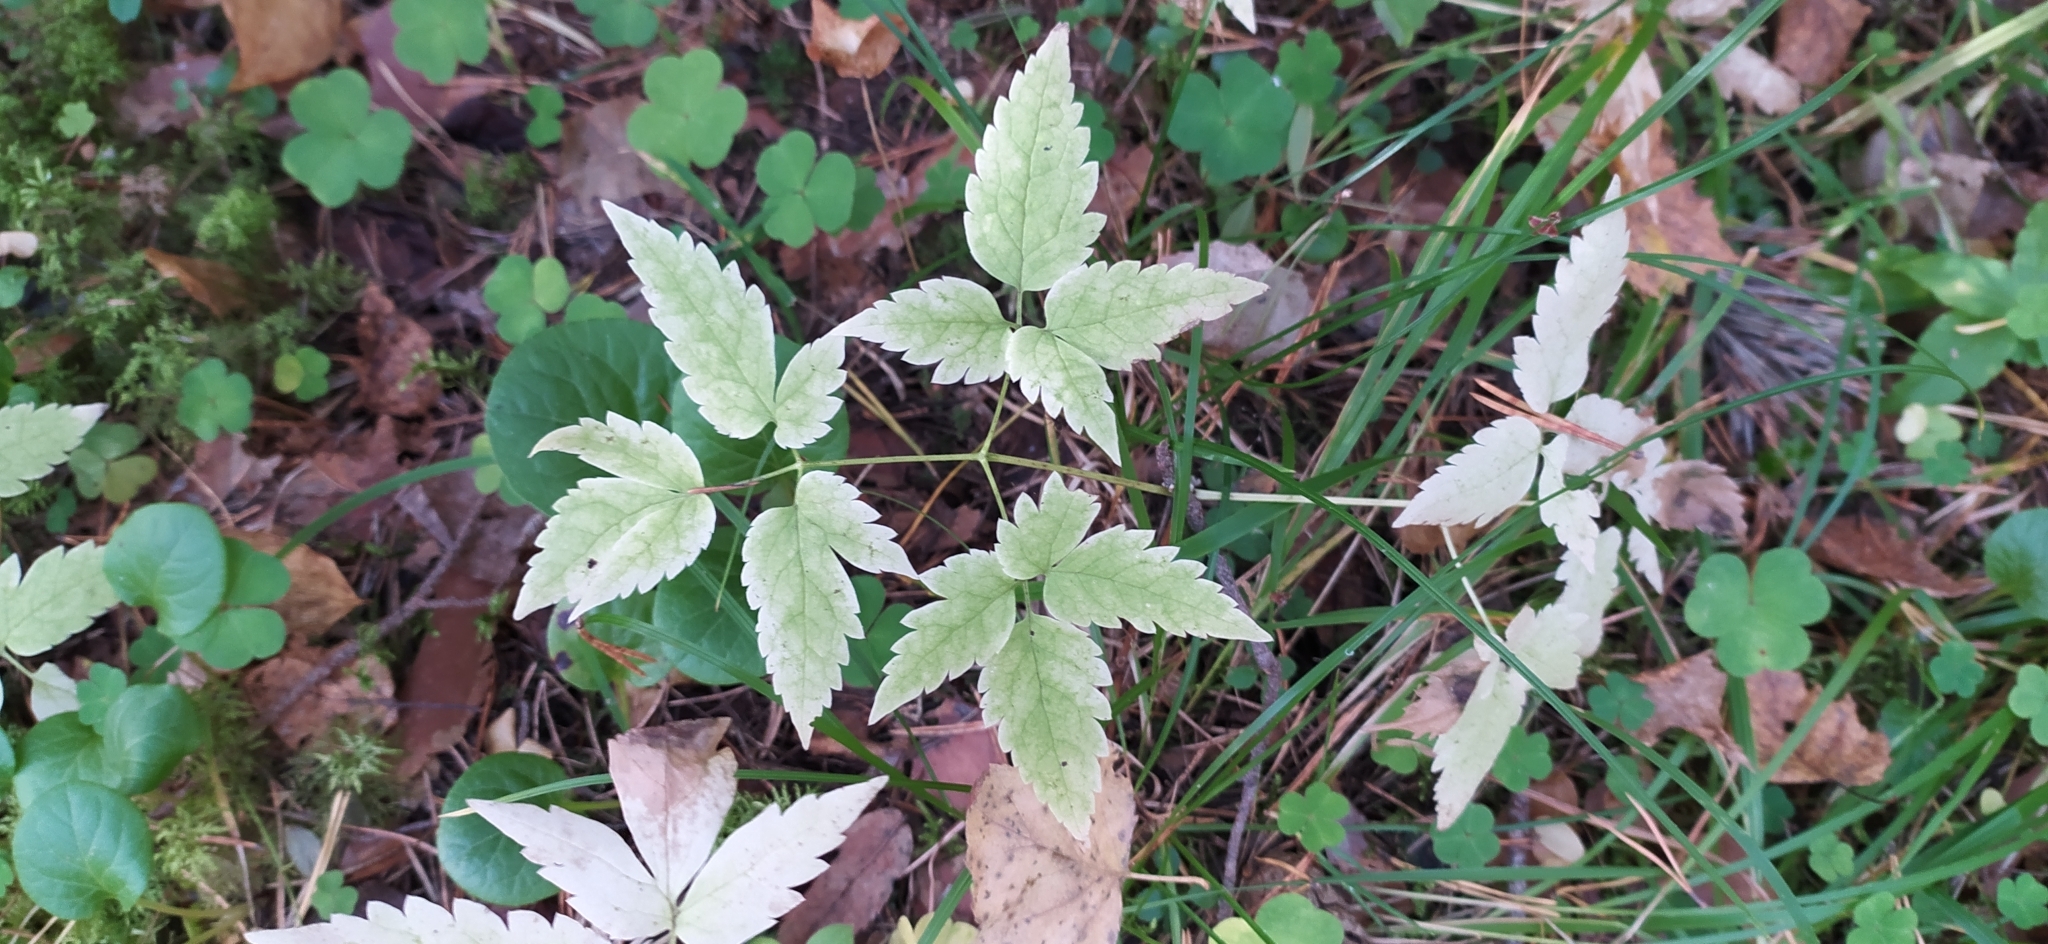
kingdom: Plantae
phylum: Tracheophyta
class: Magnoliopsida
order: Ranunculales
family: Ranunculaceae
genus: Clematis
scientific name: Clematis sibirica
